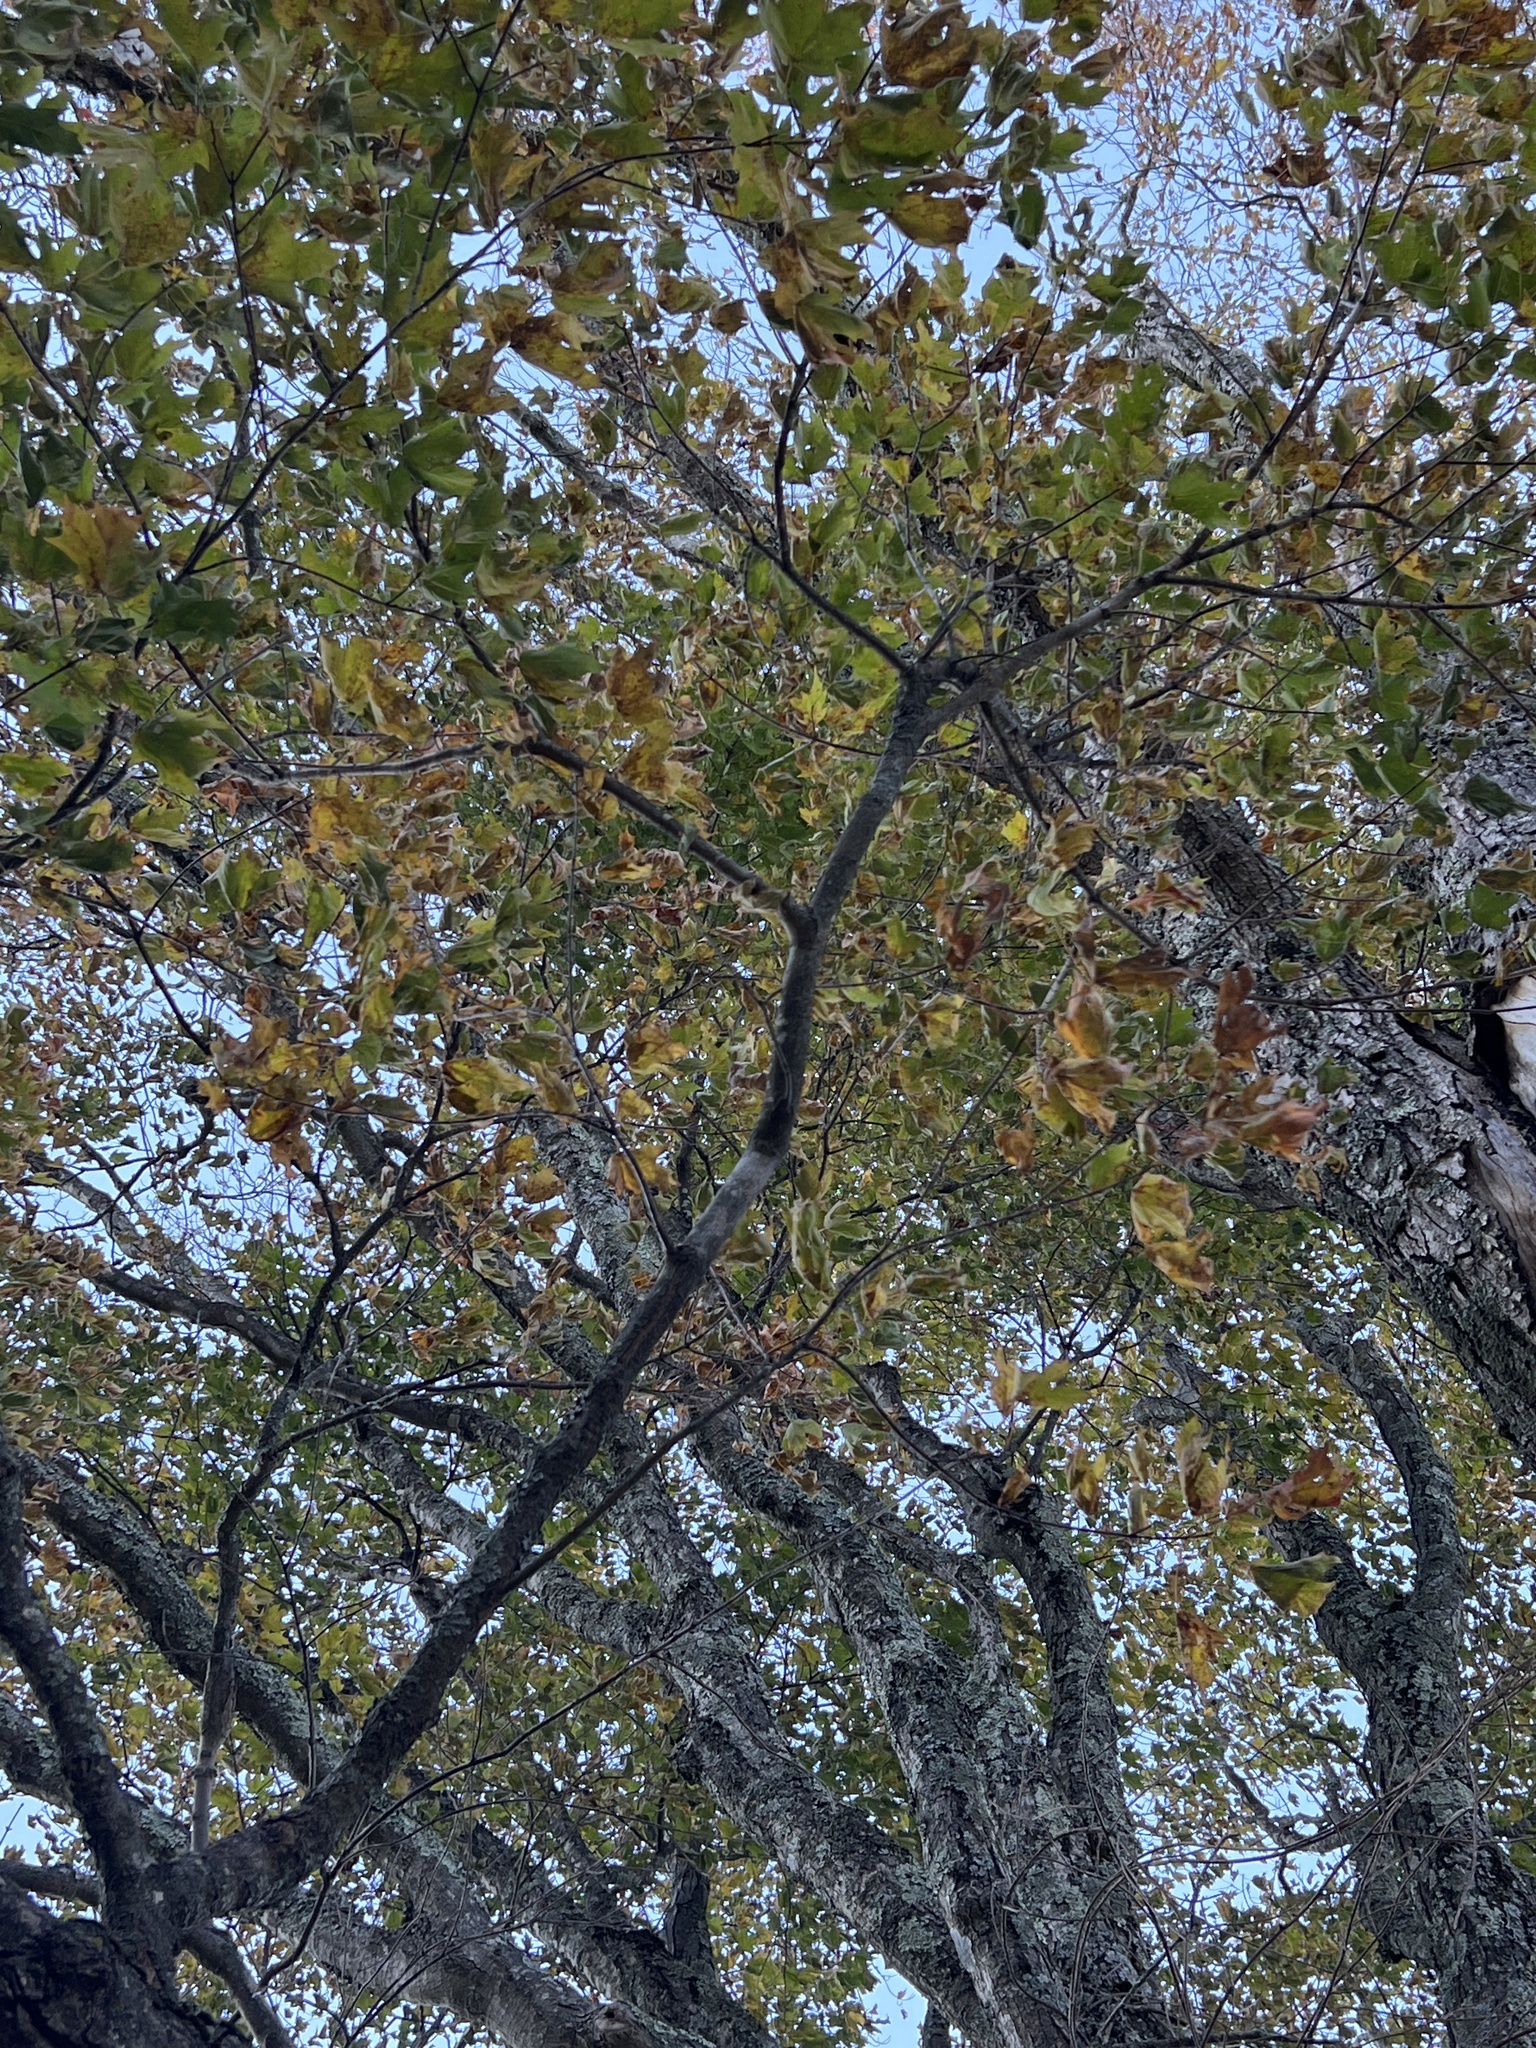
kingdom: Plantae
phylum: Tracheophyta
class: Magnoliopsida
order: Sapindales
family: Sapindaceae
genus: Acer
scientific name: Acer saccharum
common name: Sugar maple
